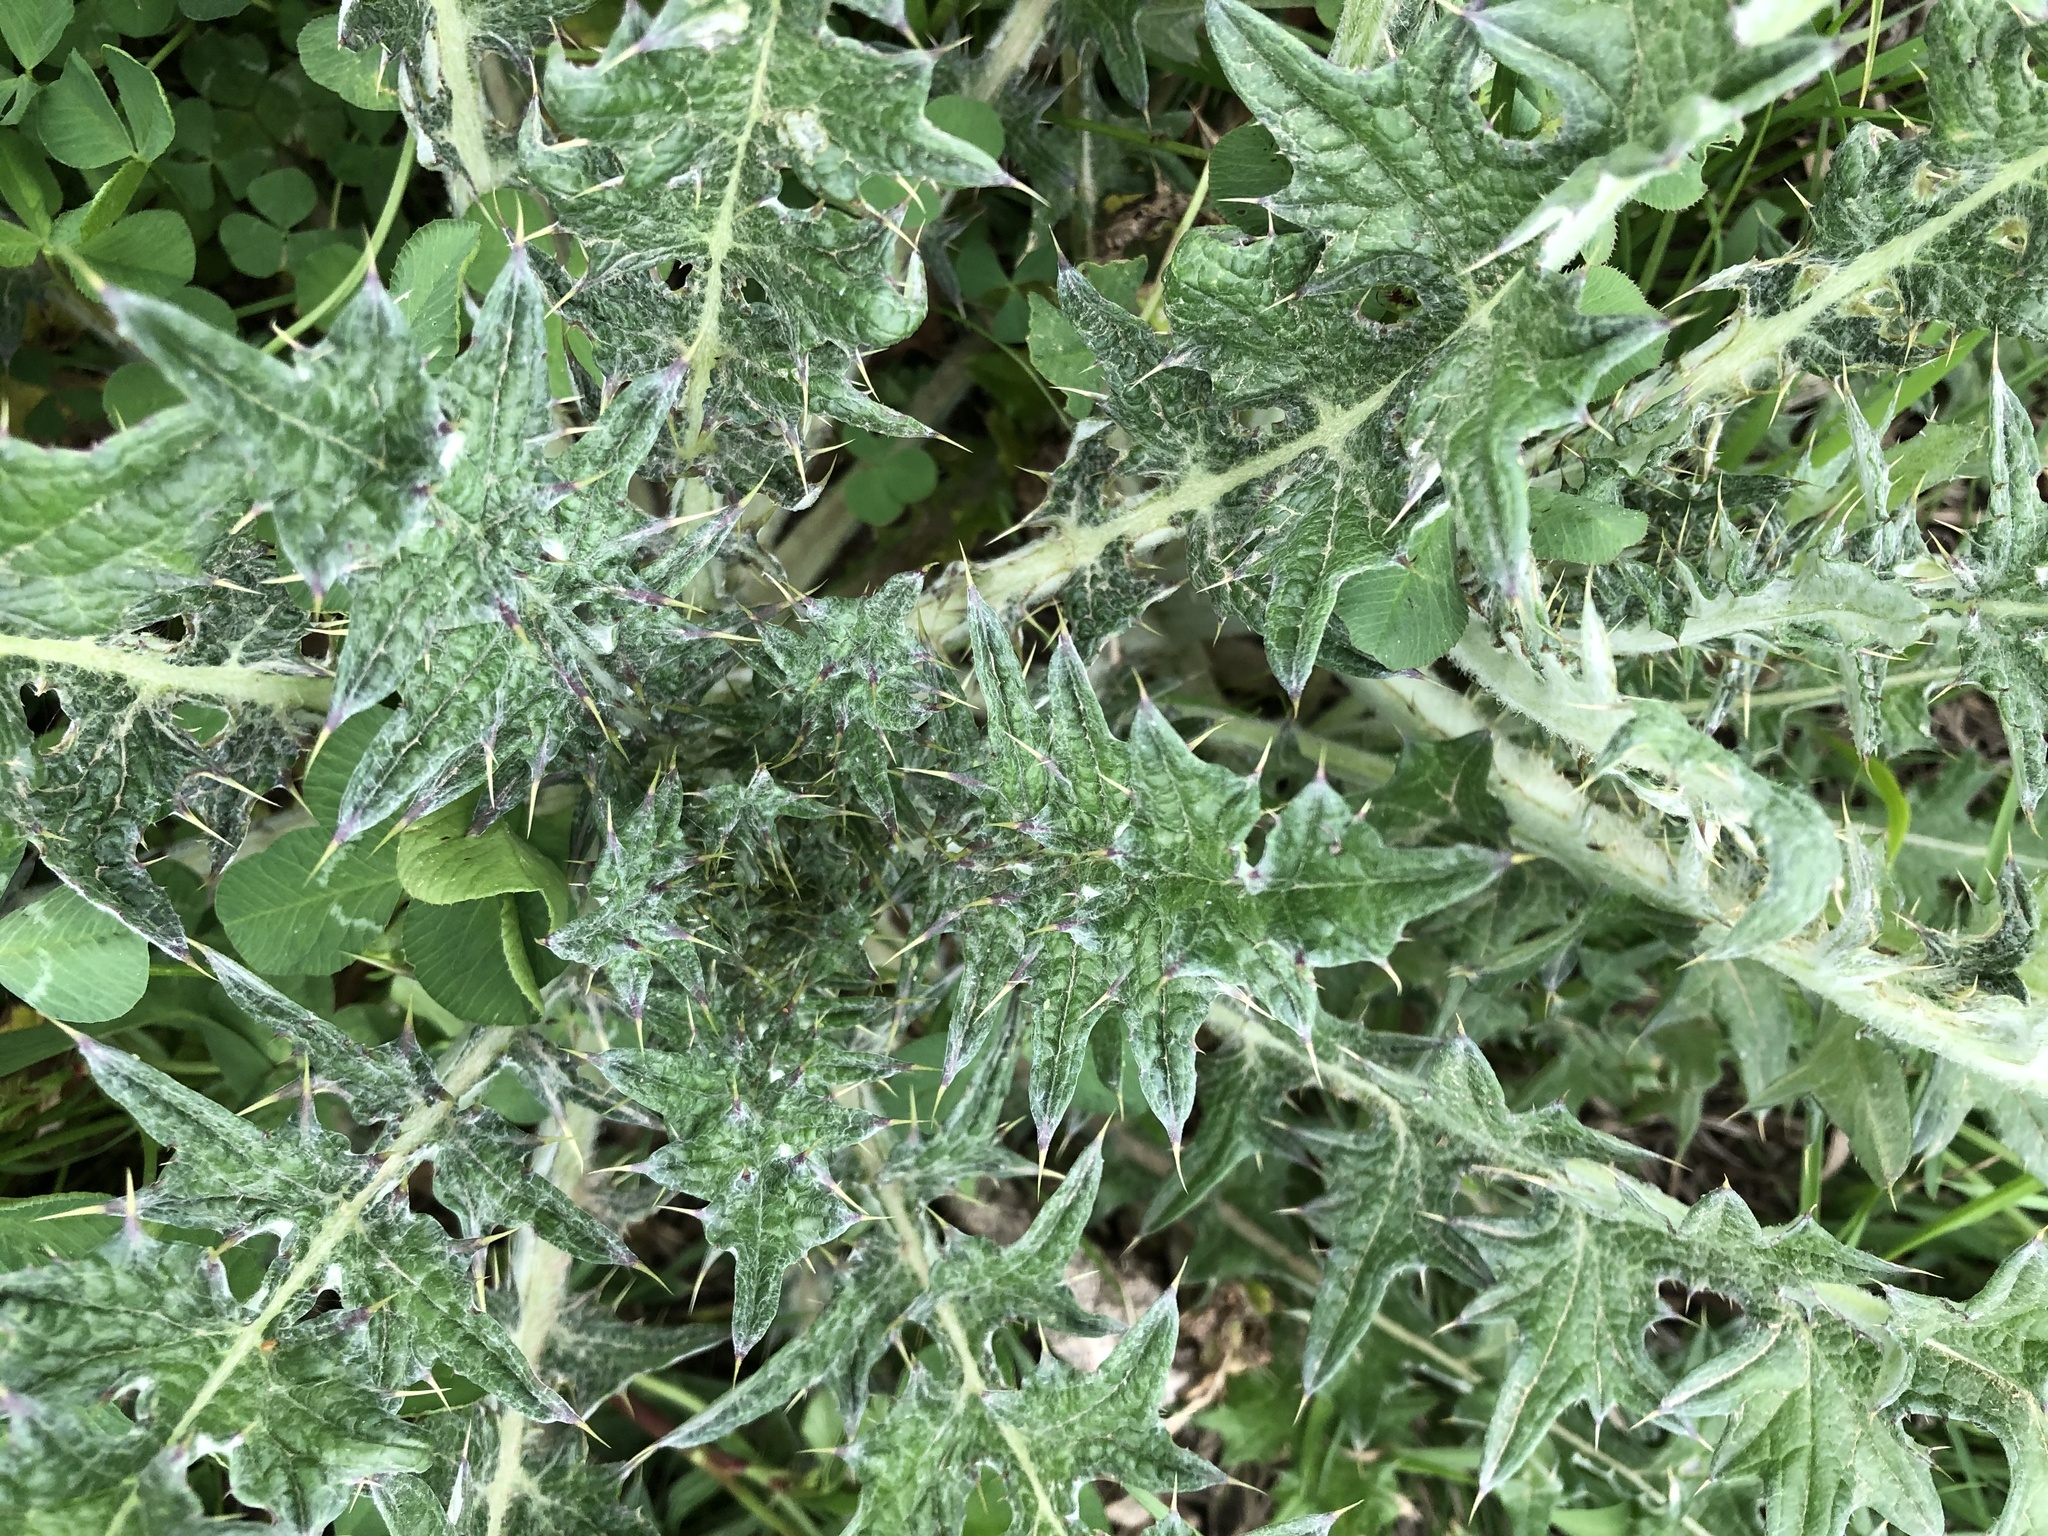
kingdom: Plantae
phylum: Tracheophyta
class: Magnoliopsida
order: Asterales
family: Asteraceae
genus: Cirsium
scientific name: Cirsium texanum
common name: Texas purple thistle
